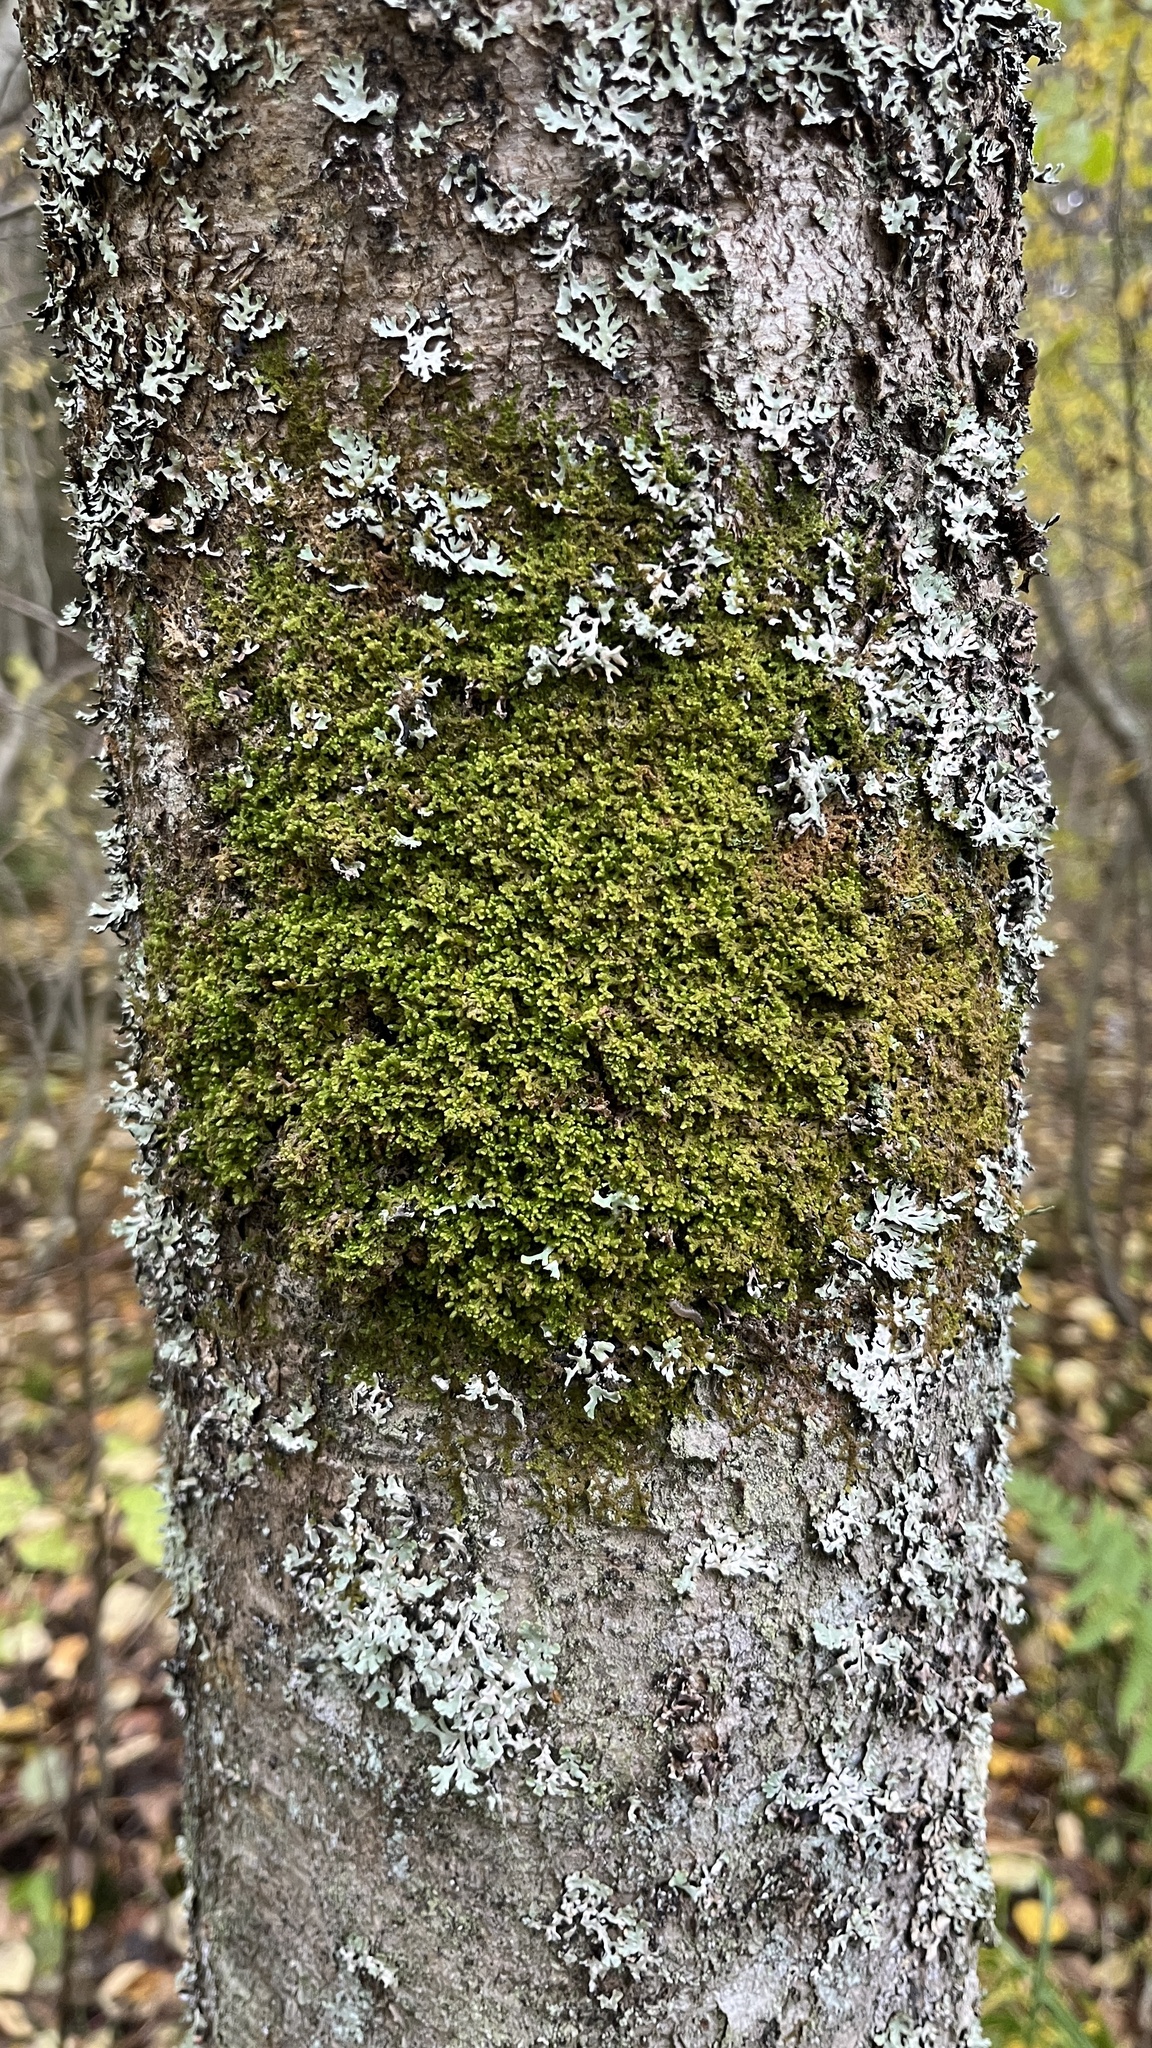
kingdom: Plantae
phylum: Marchantiophyta
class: Jungermanniopsida
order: Ptilidiales
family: Ptilidiaceae
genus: Ptilidium
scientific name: Ptilidium ciliare
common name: Ciliate fringewort
